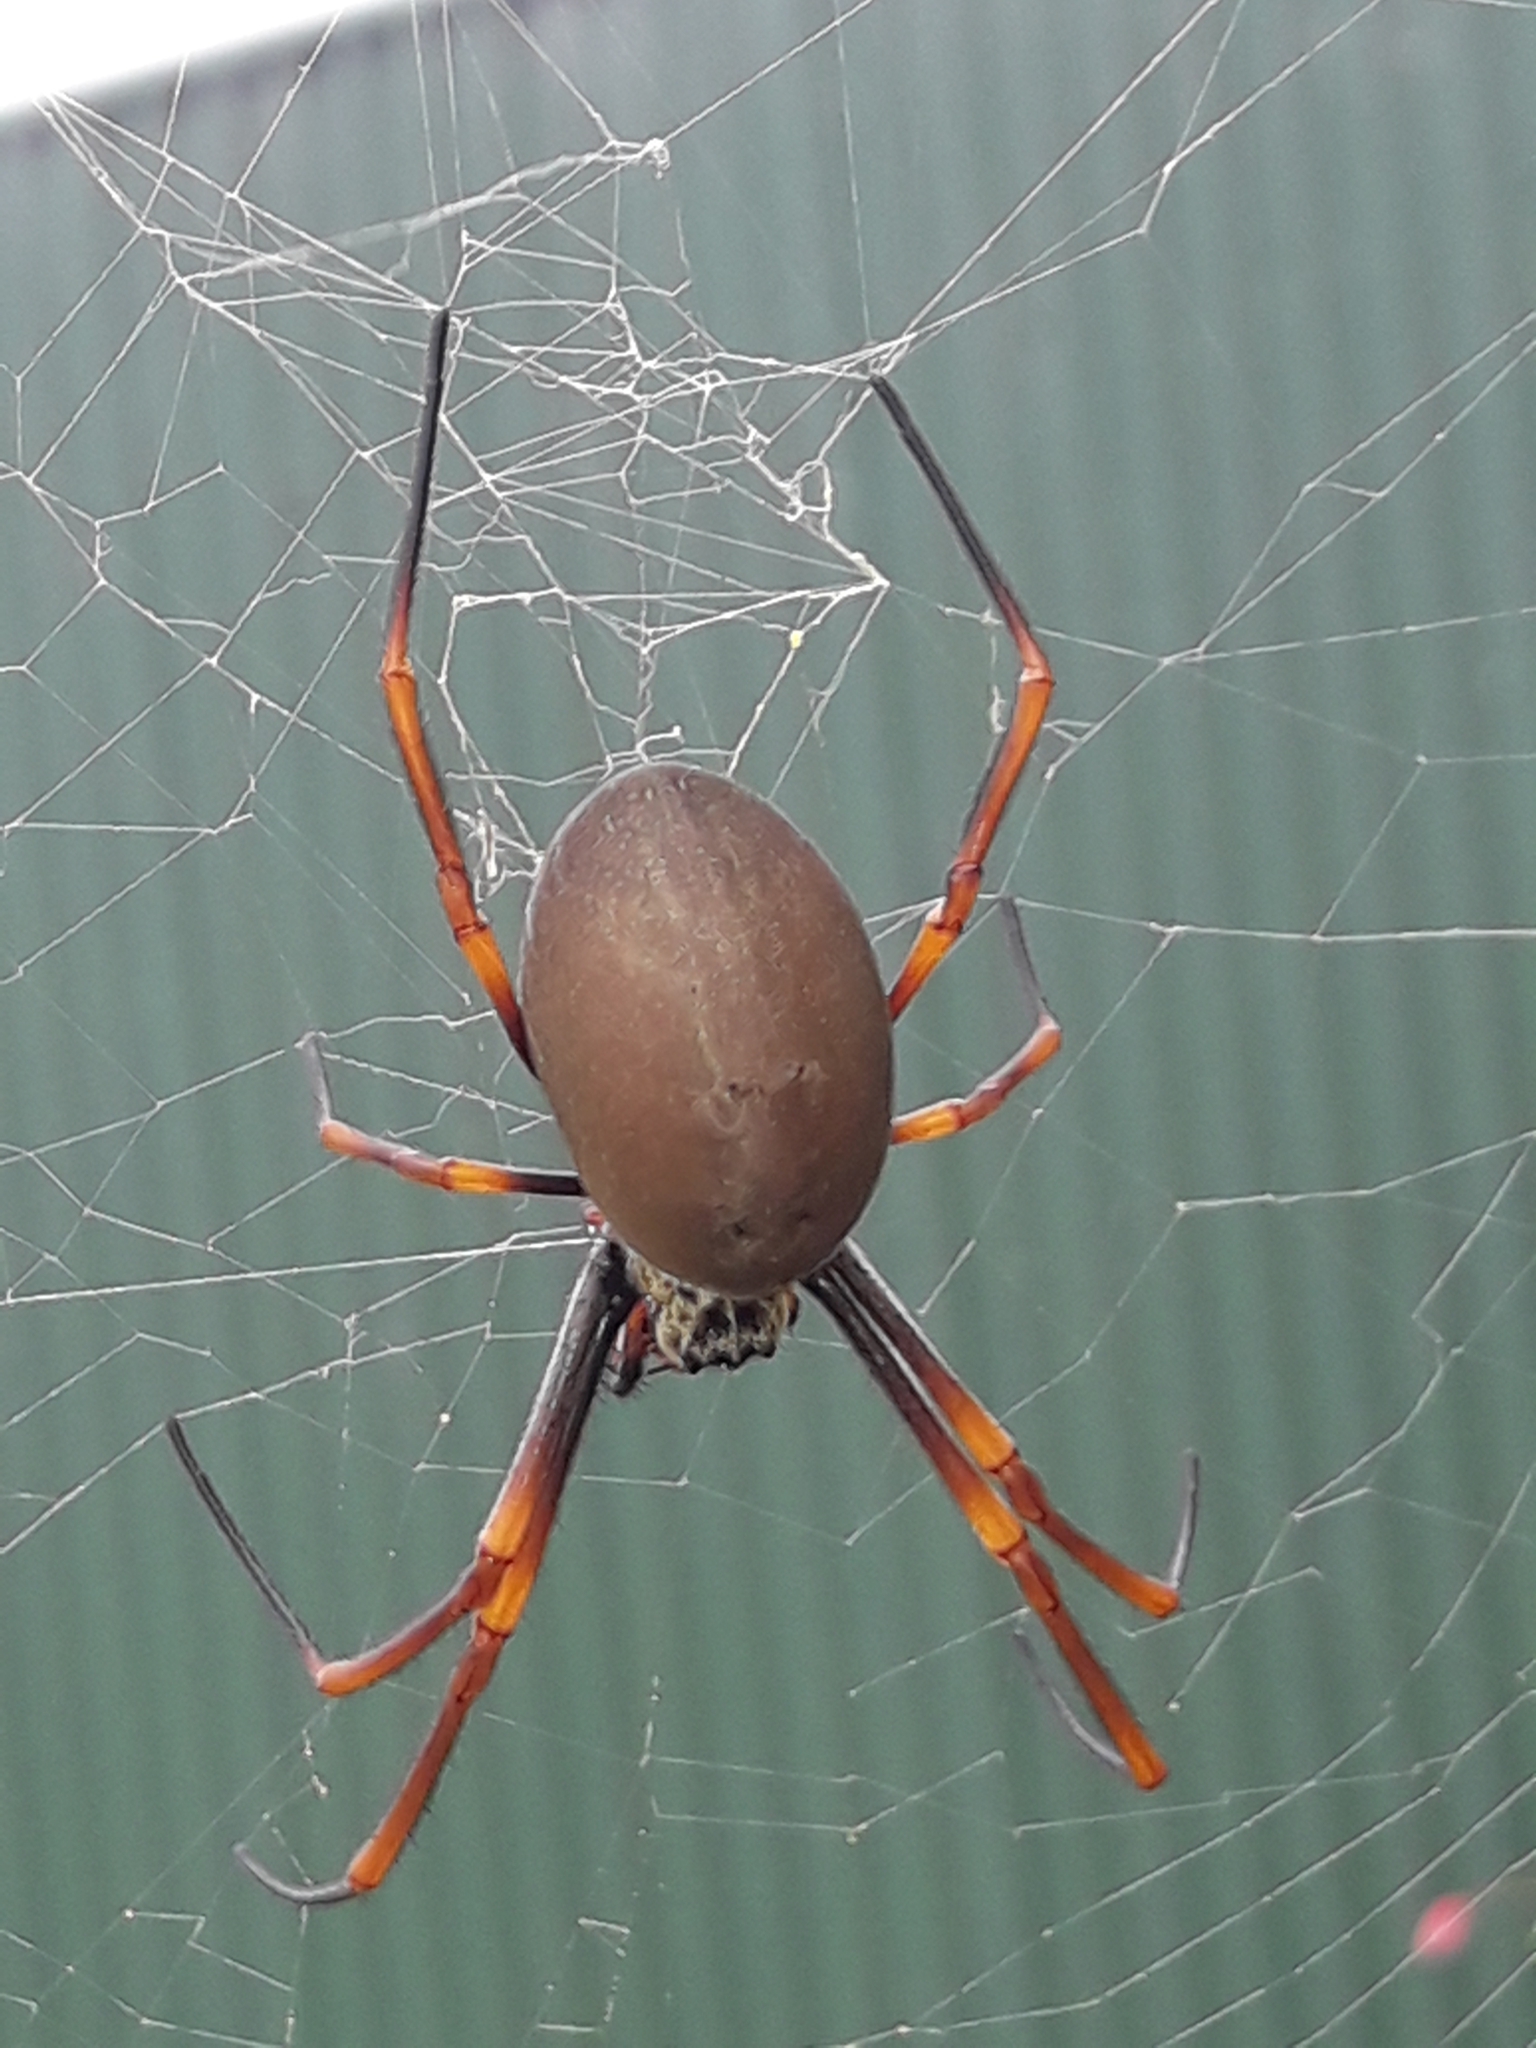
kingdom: Animalia
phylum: Arthropoda
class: Arachnida
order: Araneae
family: Araneidae
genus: Trichonephila
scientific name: Trichonephila plumipes
